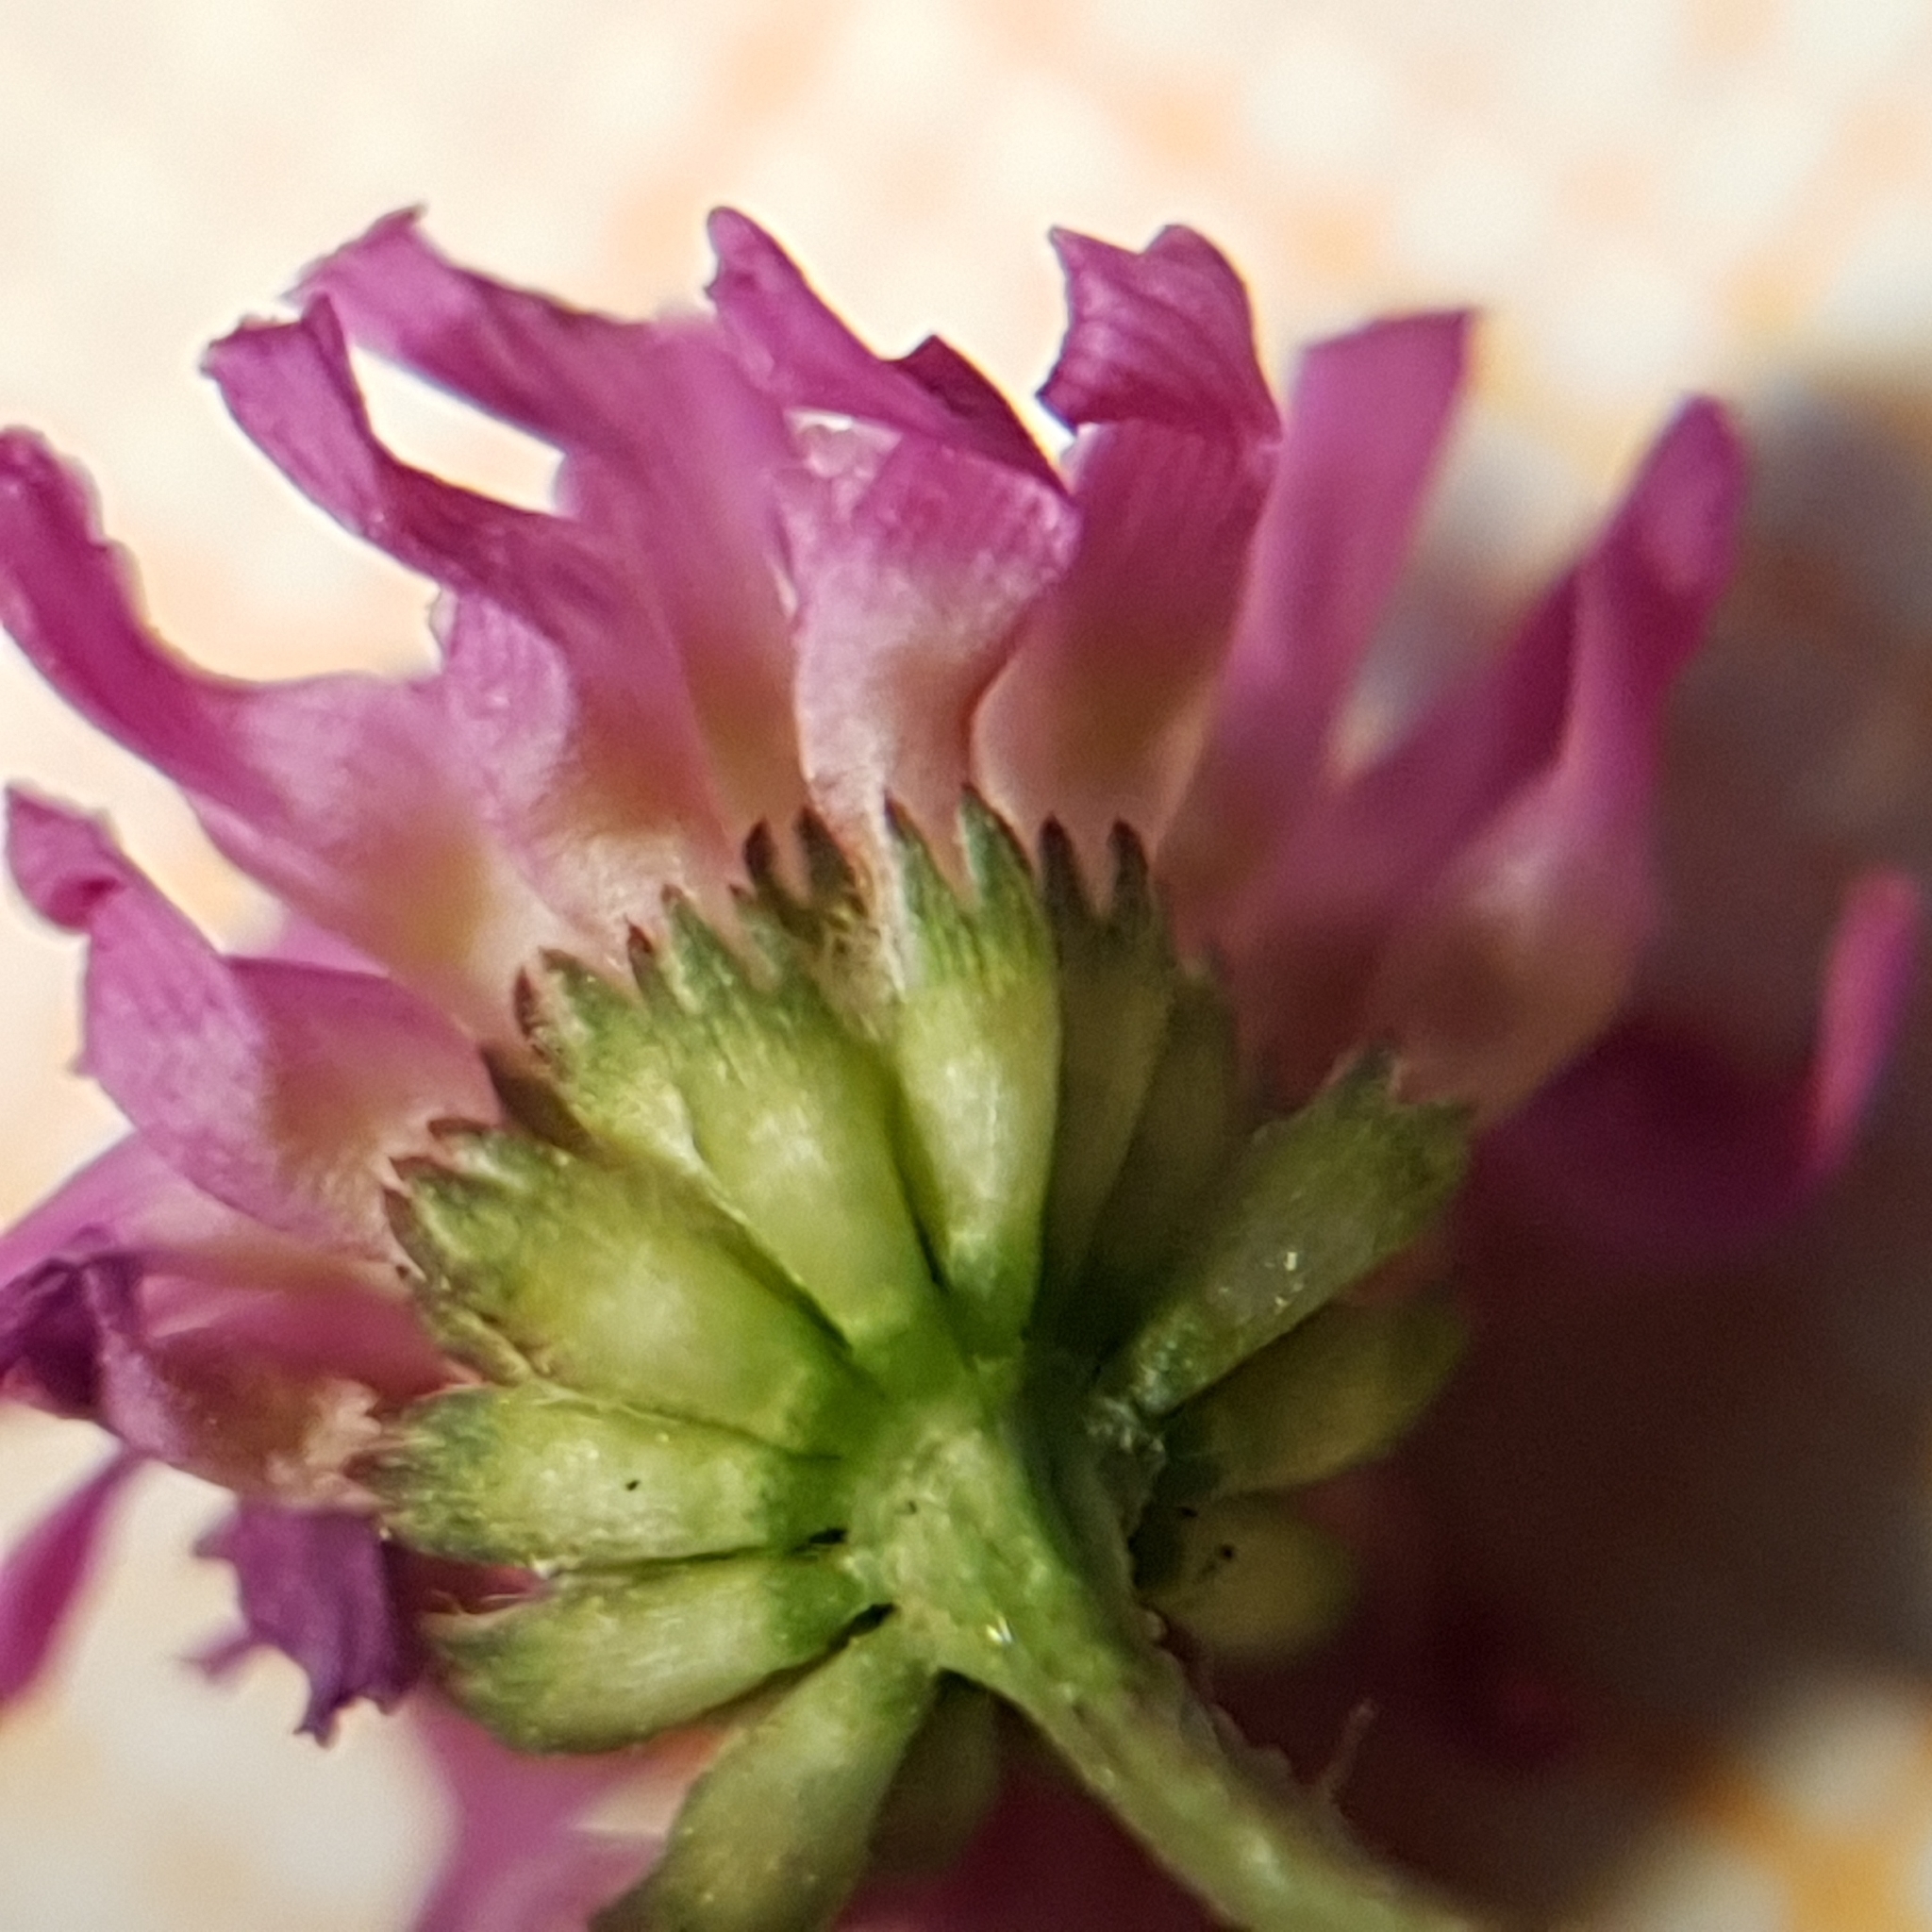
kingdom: Plantae
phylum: Tracheophyta
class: Magnoliopsida
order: Fabales
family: Fabaceae
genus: Trifolium
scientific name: Trifolium resupinatum
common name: Reversed clover
